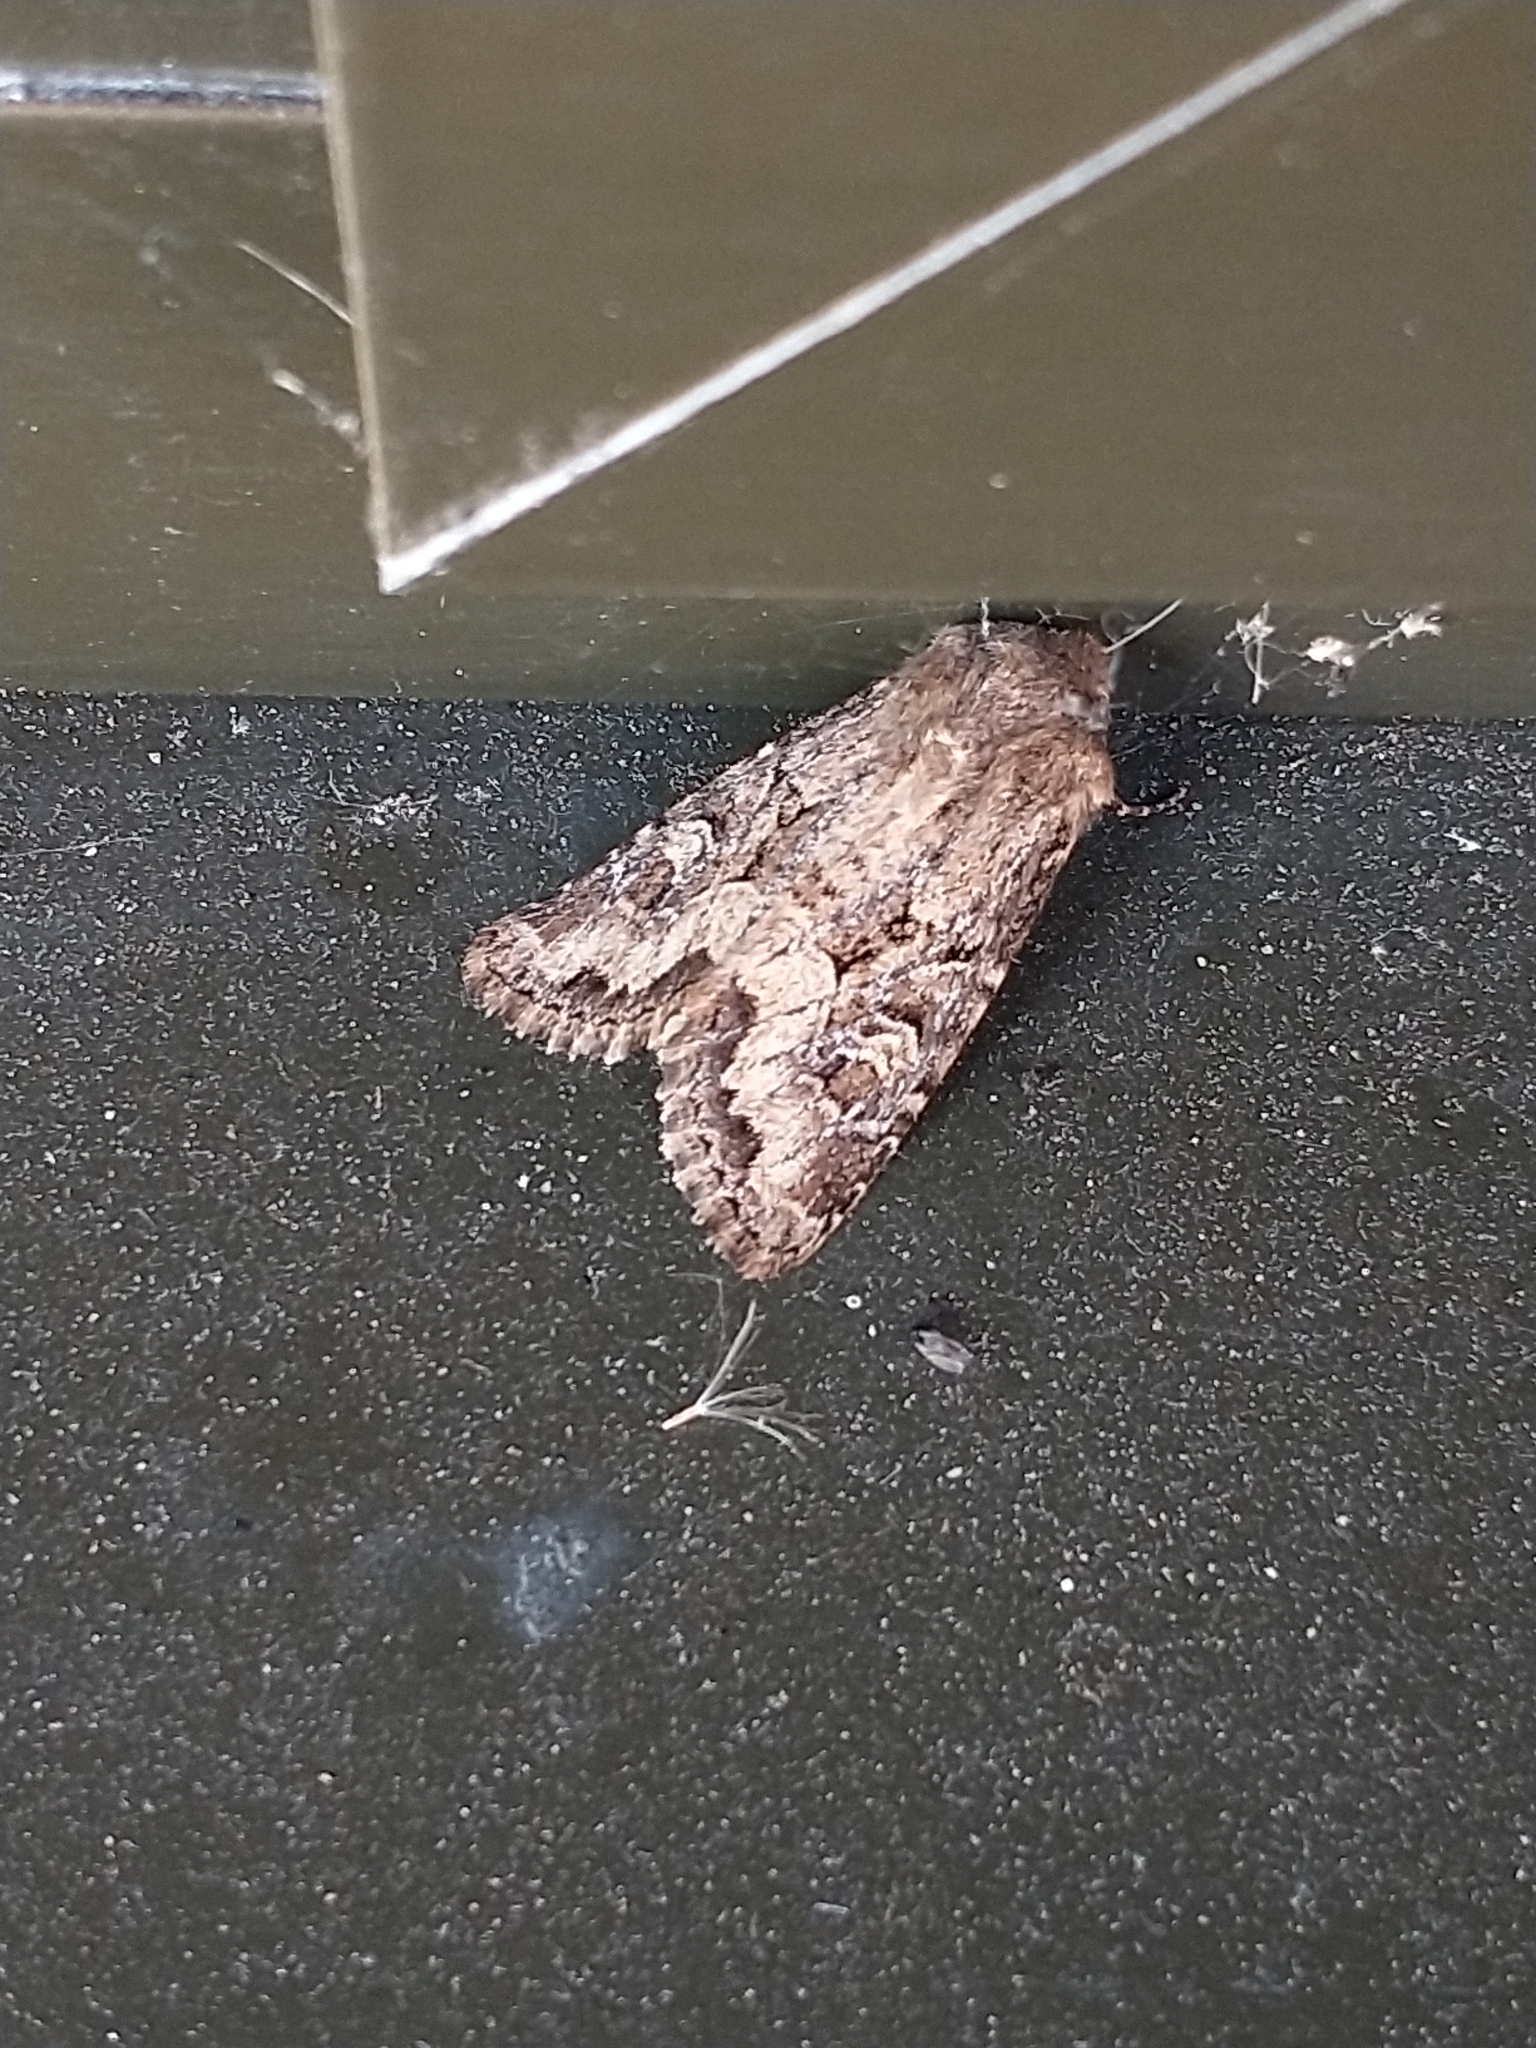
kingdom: Animalia
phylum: Arthropoda
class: Insecta
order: Lepidoptera
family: Noctuidae
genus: Luperina
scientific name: Luperina testacea
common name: Flounced rustic
